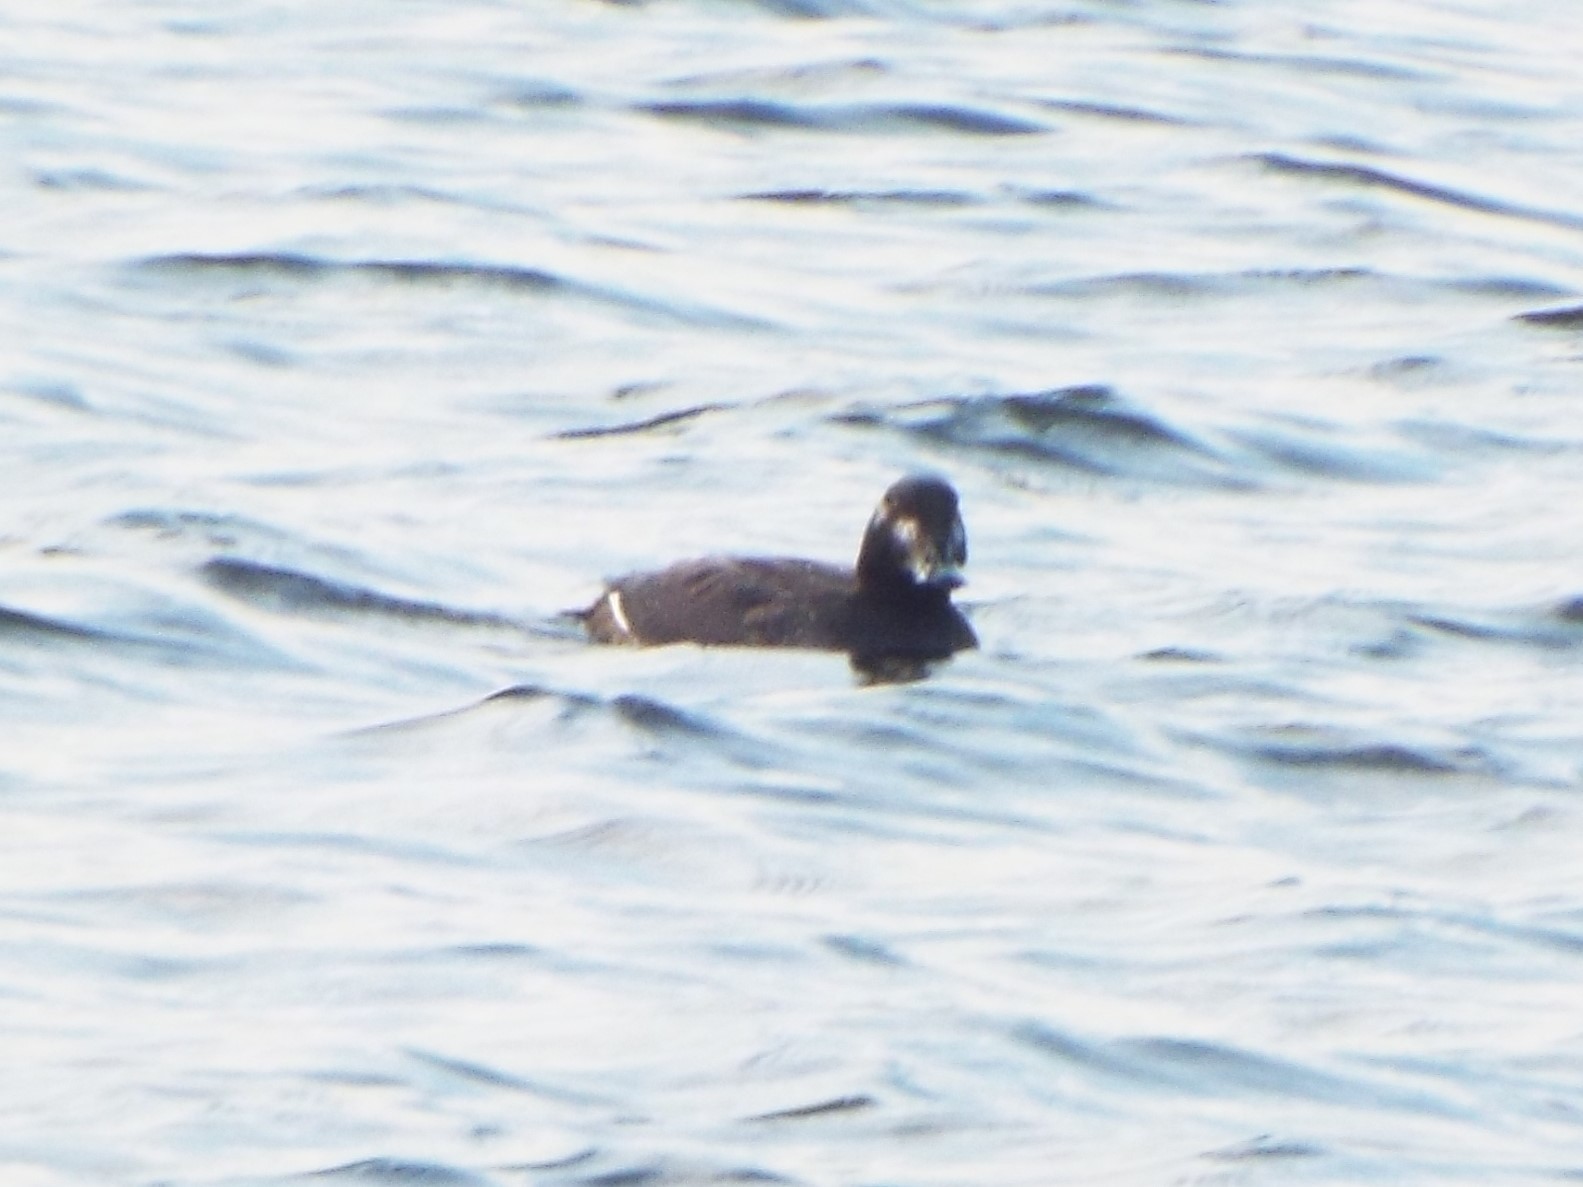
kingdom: Animalia
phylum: Chordata
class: Aves
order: Anseriformes
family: Anatidae
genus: Melanitta
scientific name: Melanitta deglandi
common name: White-winged scoter
